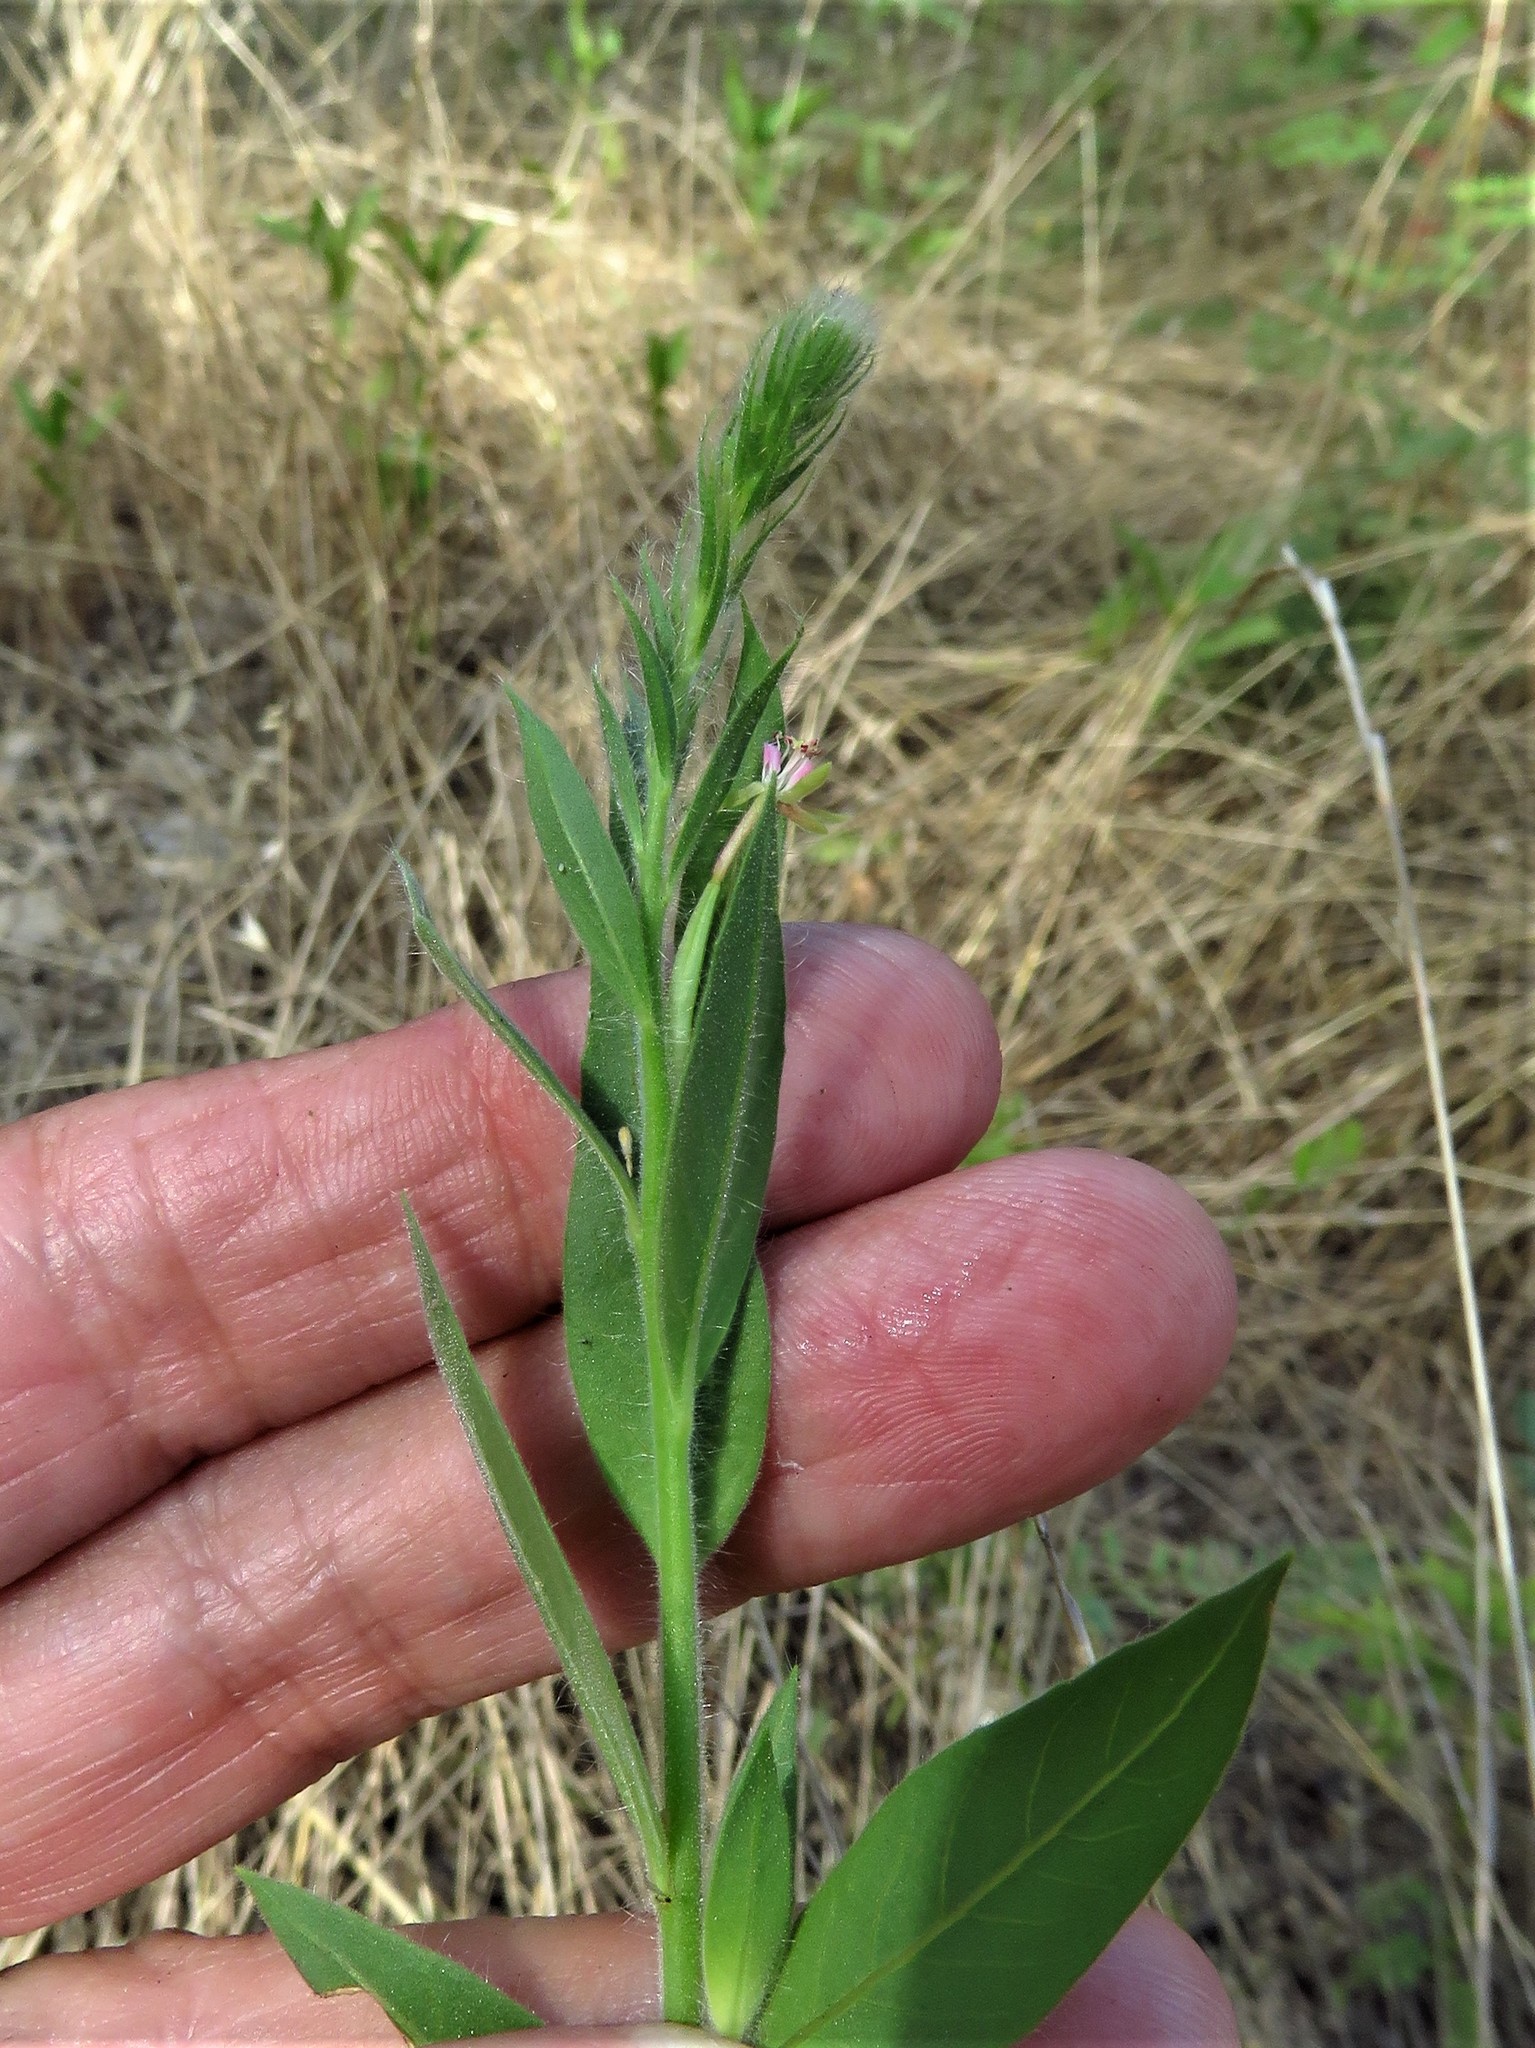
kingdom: Plantae
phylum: Tracheophyta
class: Magnoliopsida
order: Myrtales
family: Onagraceae
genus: Oenothera
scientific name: Oenothera curtiflora
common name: Velvetweed
